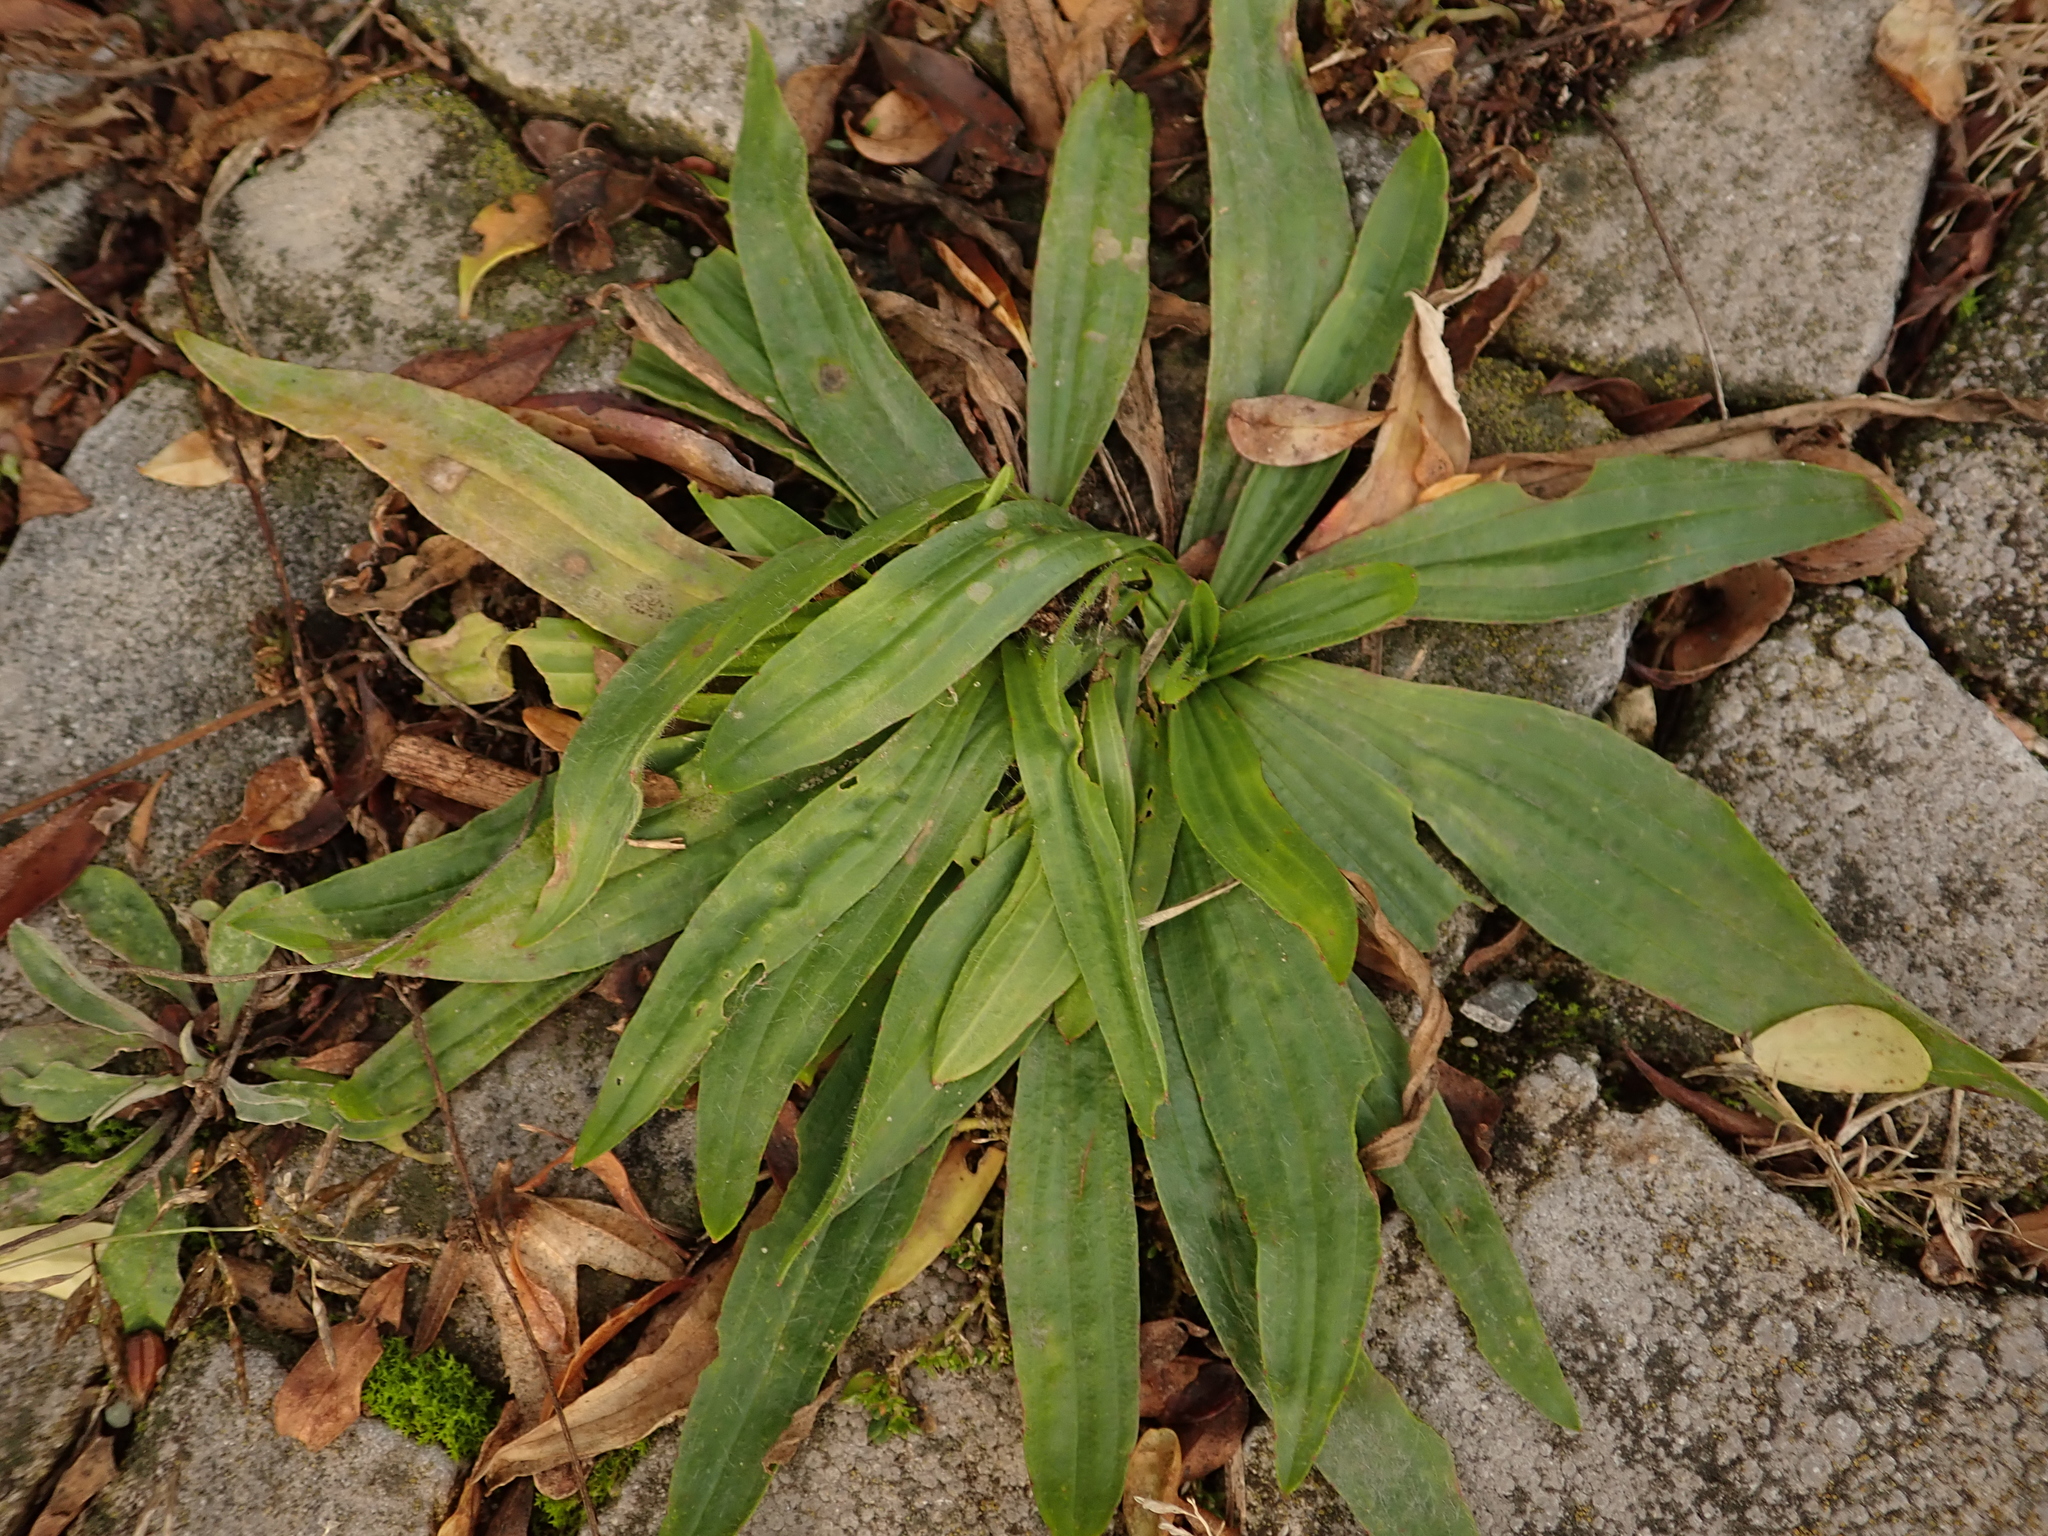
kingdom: Plantae
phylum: Tracheophyta
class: Magnoliopsida
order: Lamiales
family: Plantaginaceae
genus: Plantago
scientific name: Plantago lanceolata
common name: Ribwort plantain
